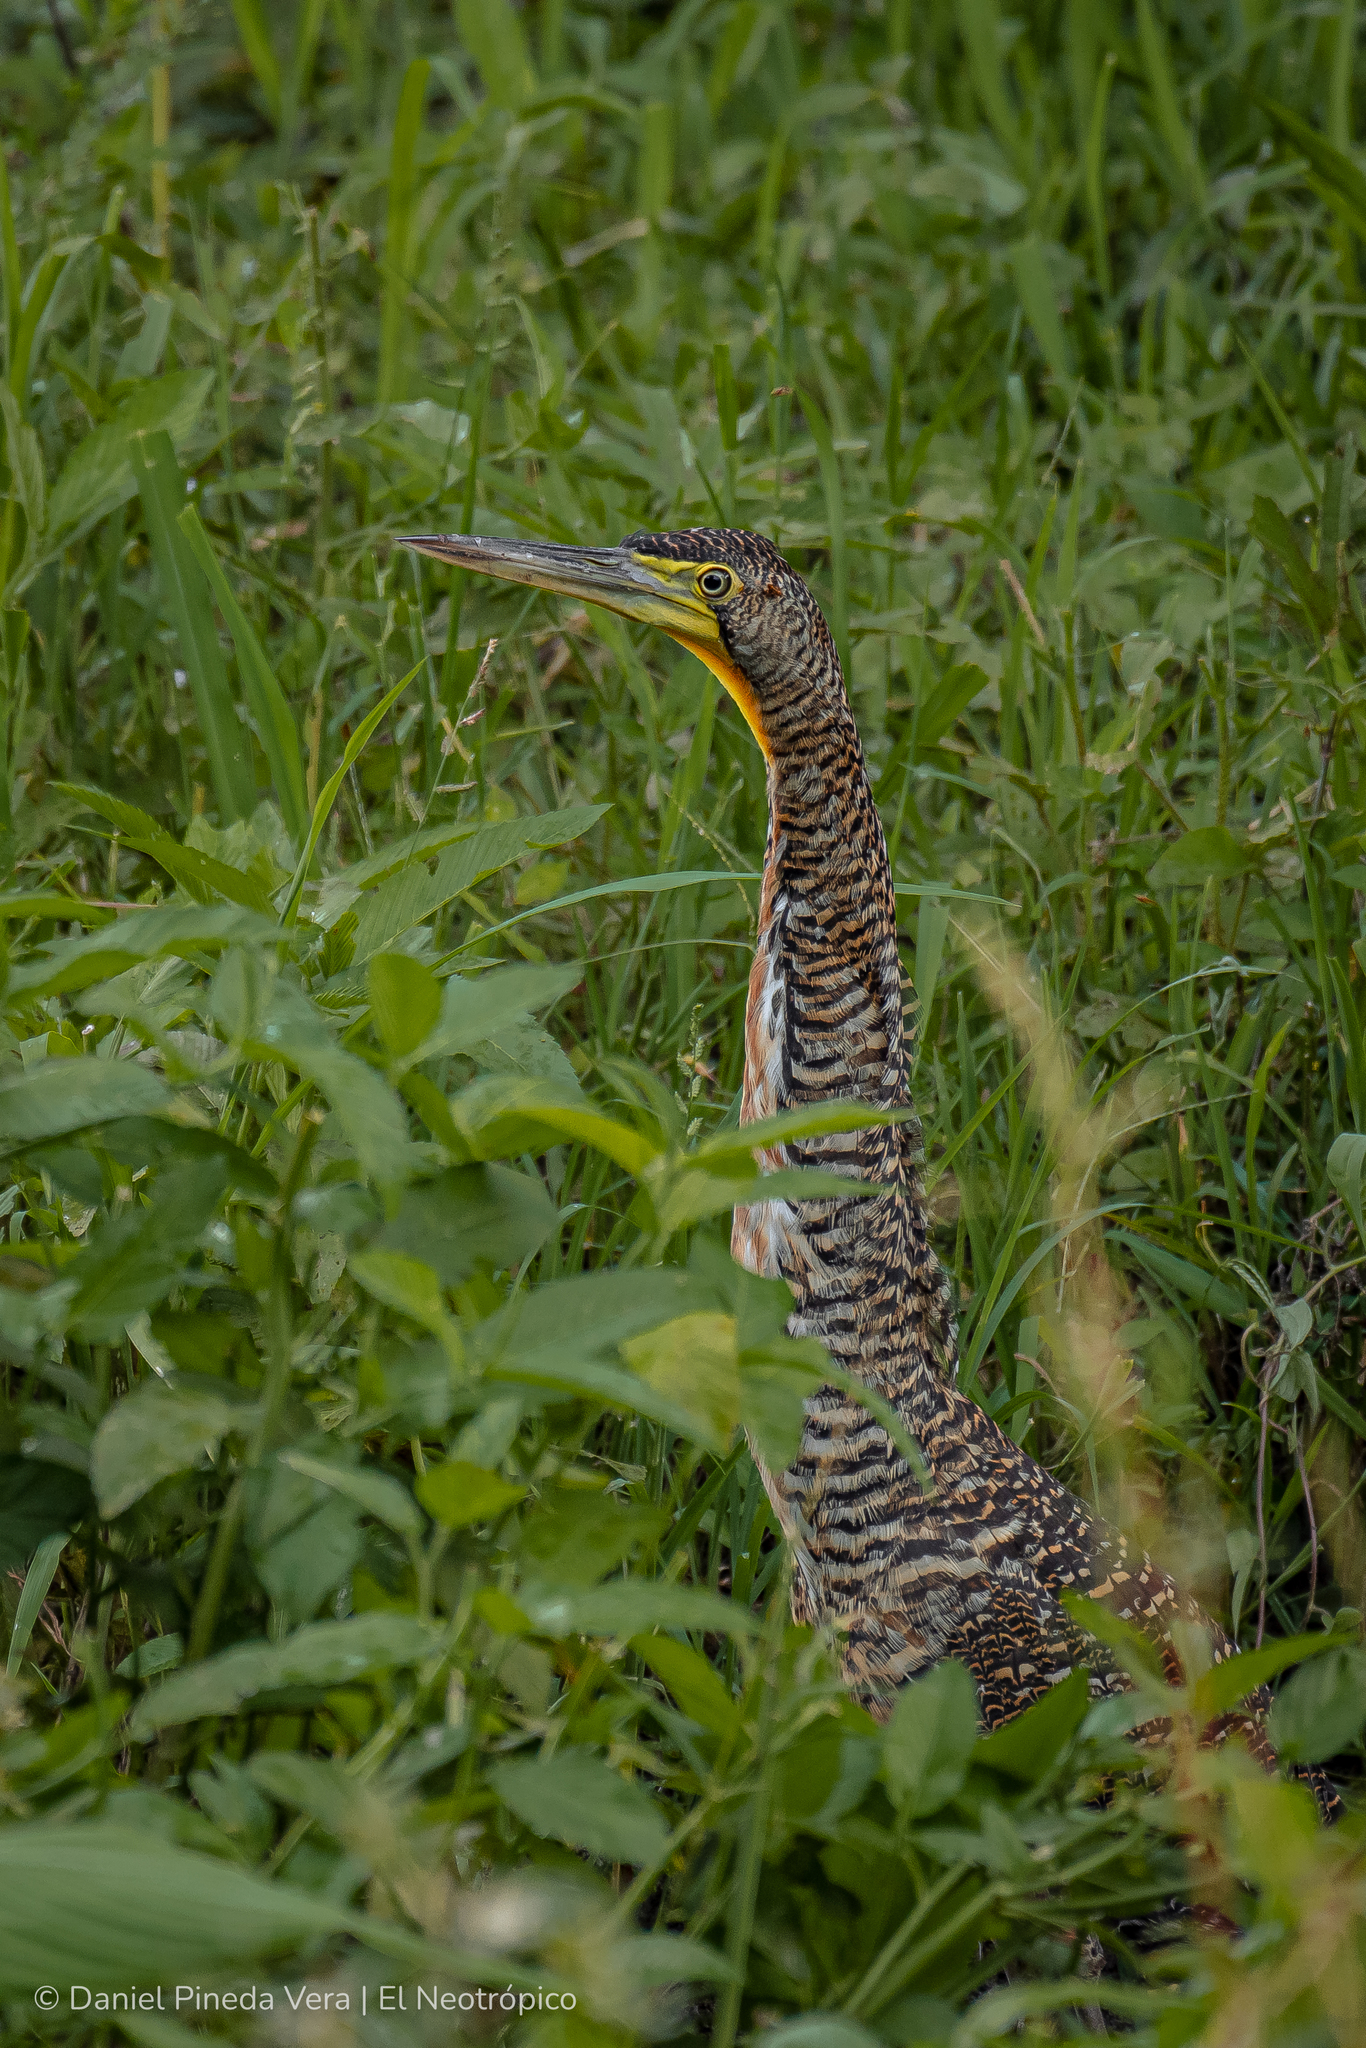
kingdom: Animalia
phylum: Chordata
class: Aves
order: Pelecaniformes
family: Ardeidae
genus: Tigrisoma
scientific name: Tigrisoma mexicanum
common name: Bare-throated tiger-heron
